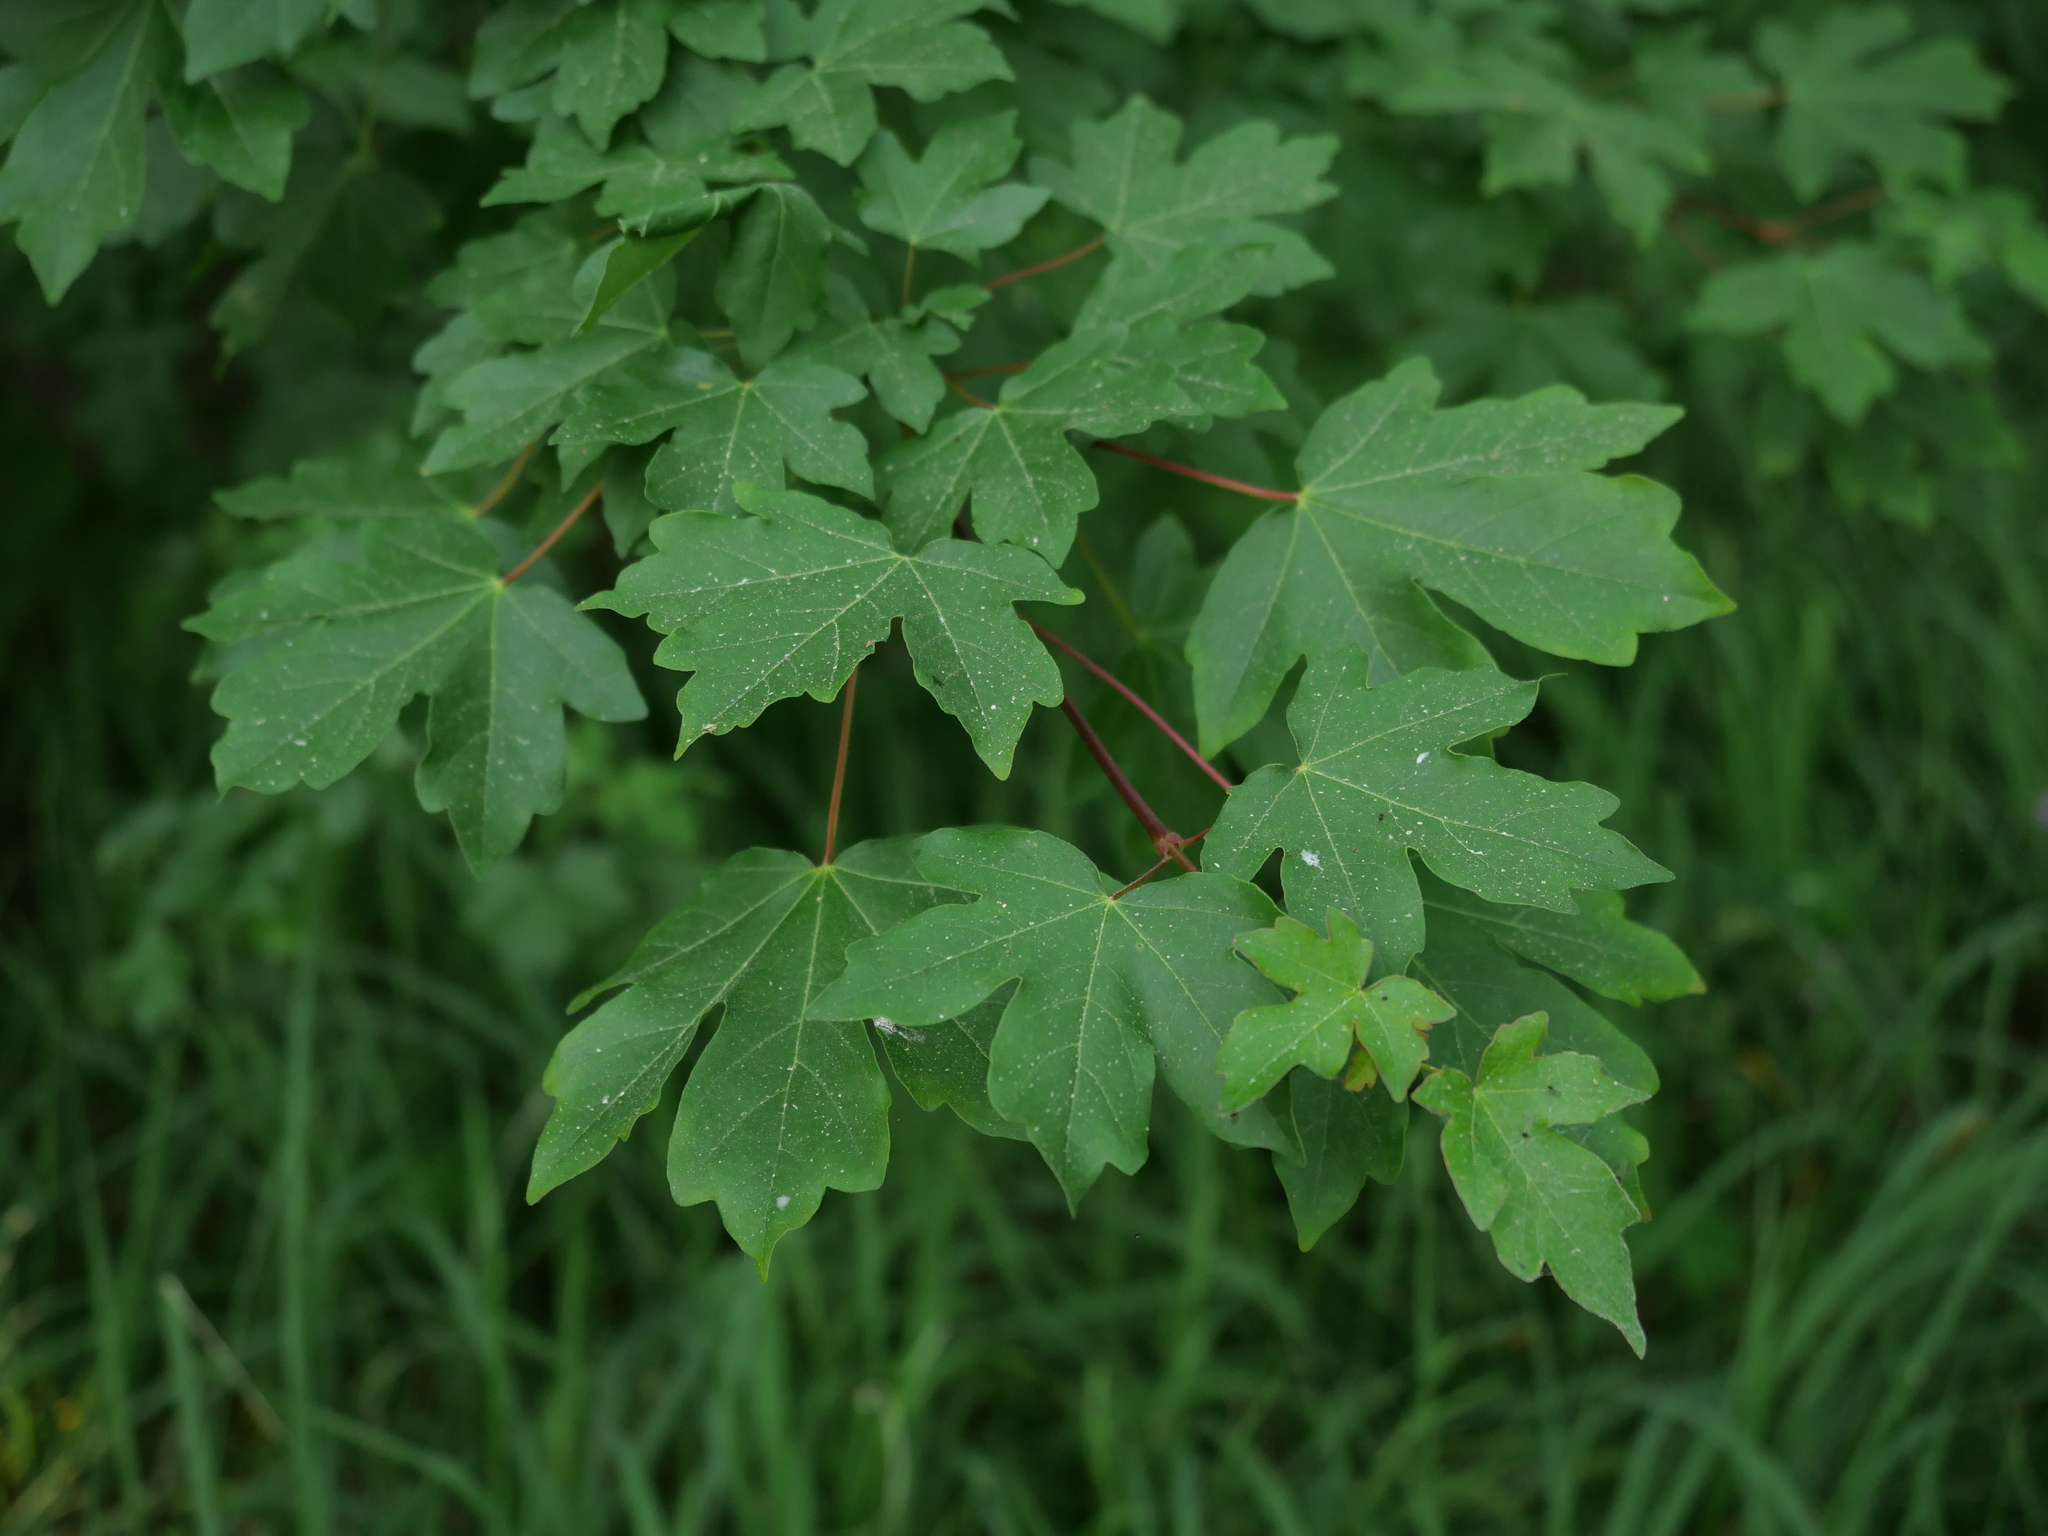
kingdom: Plantae
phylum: Tracheophyta
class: Magnoliopsida
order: Sapindales
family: Sapindaceae
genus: Acer
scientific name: Acer campestre
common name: Field maple
